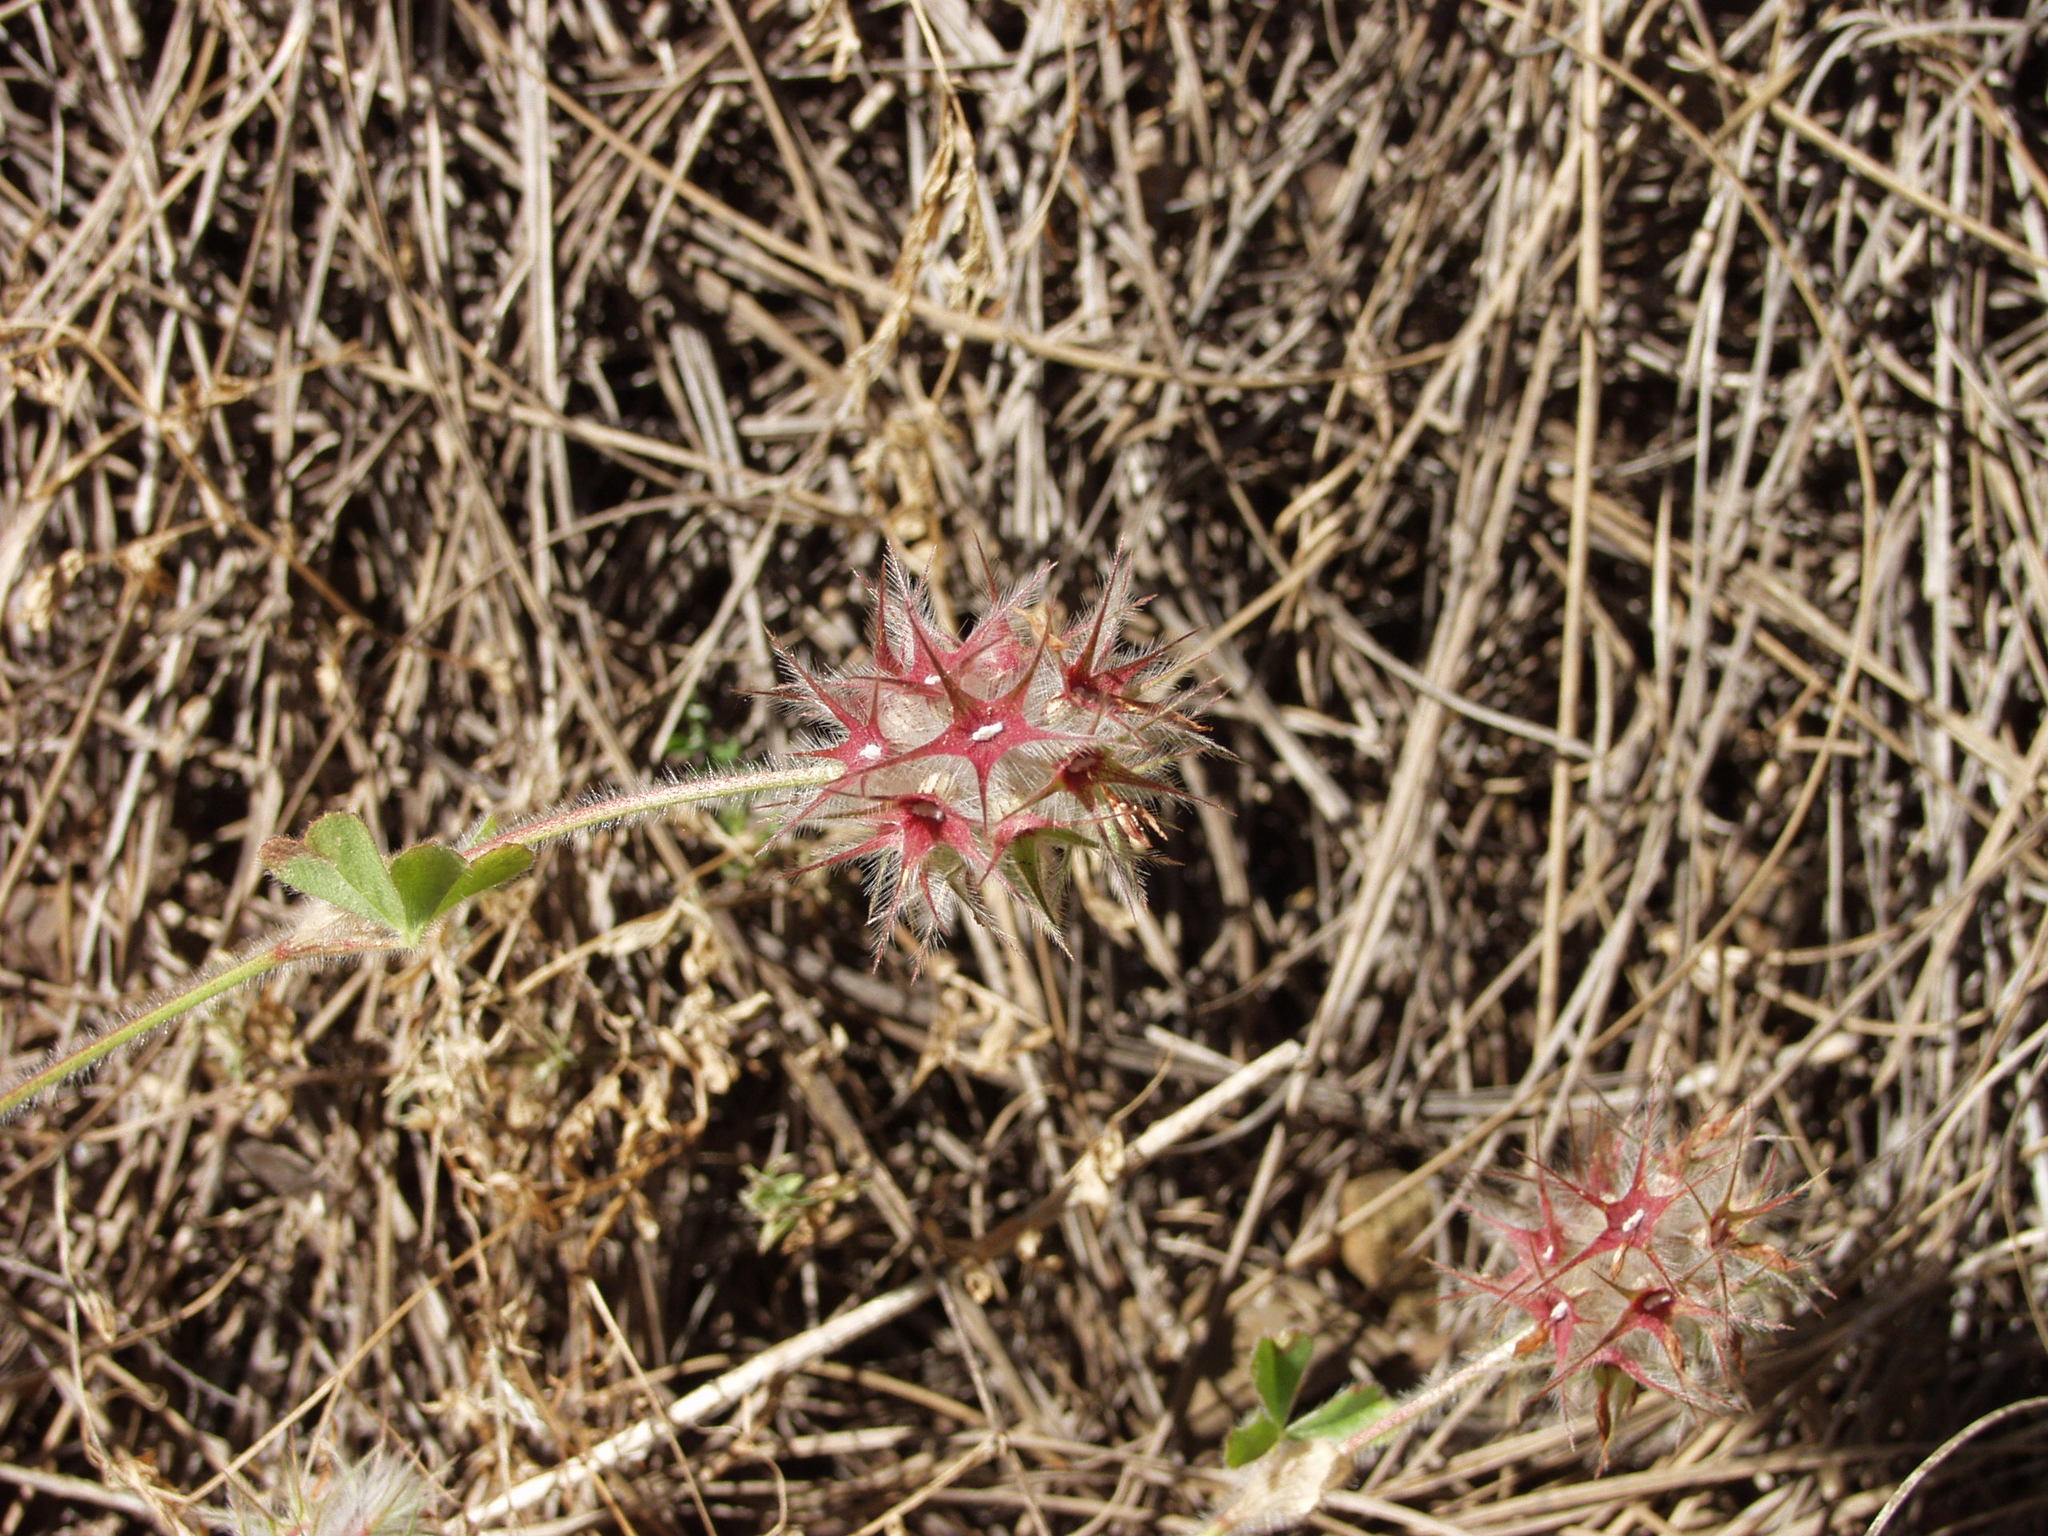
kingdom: Plantae
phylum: Tracheophyta
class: Magnoliopsida
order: Fabales
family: Fabaceae
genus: Trifolium
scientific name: Trifolium stellatum
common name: Starry clover
